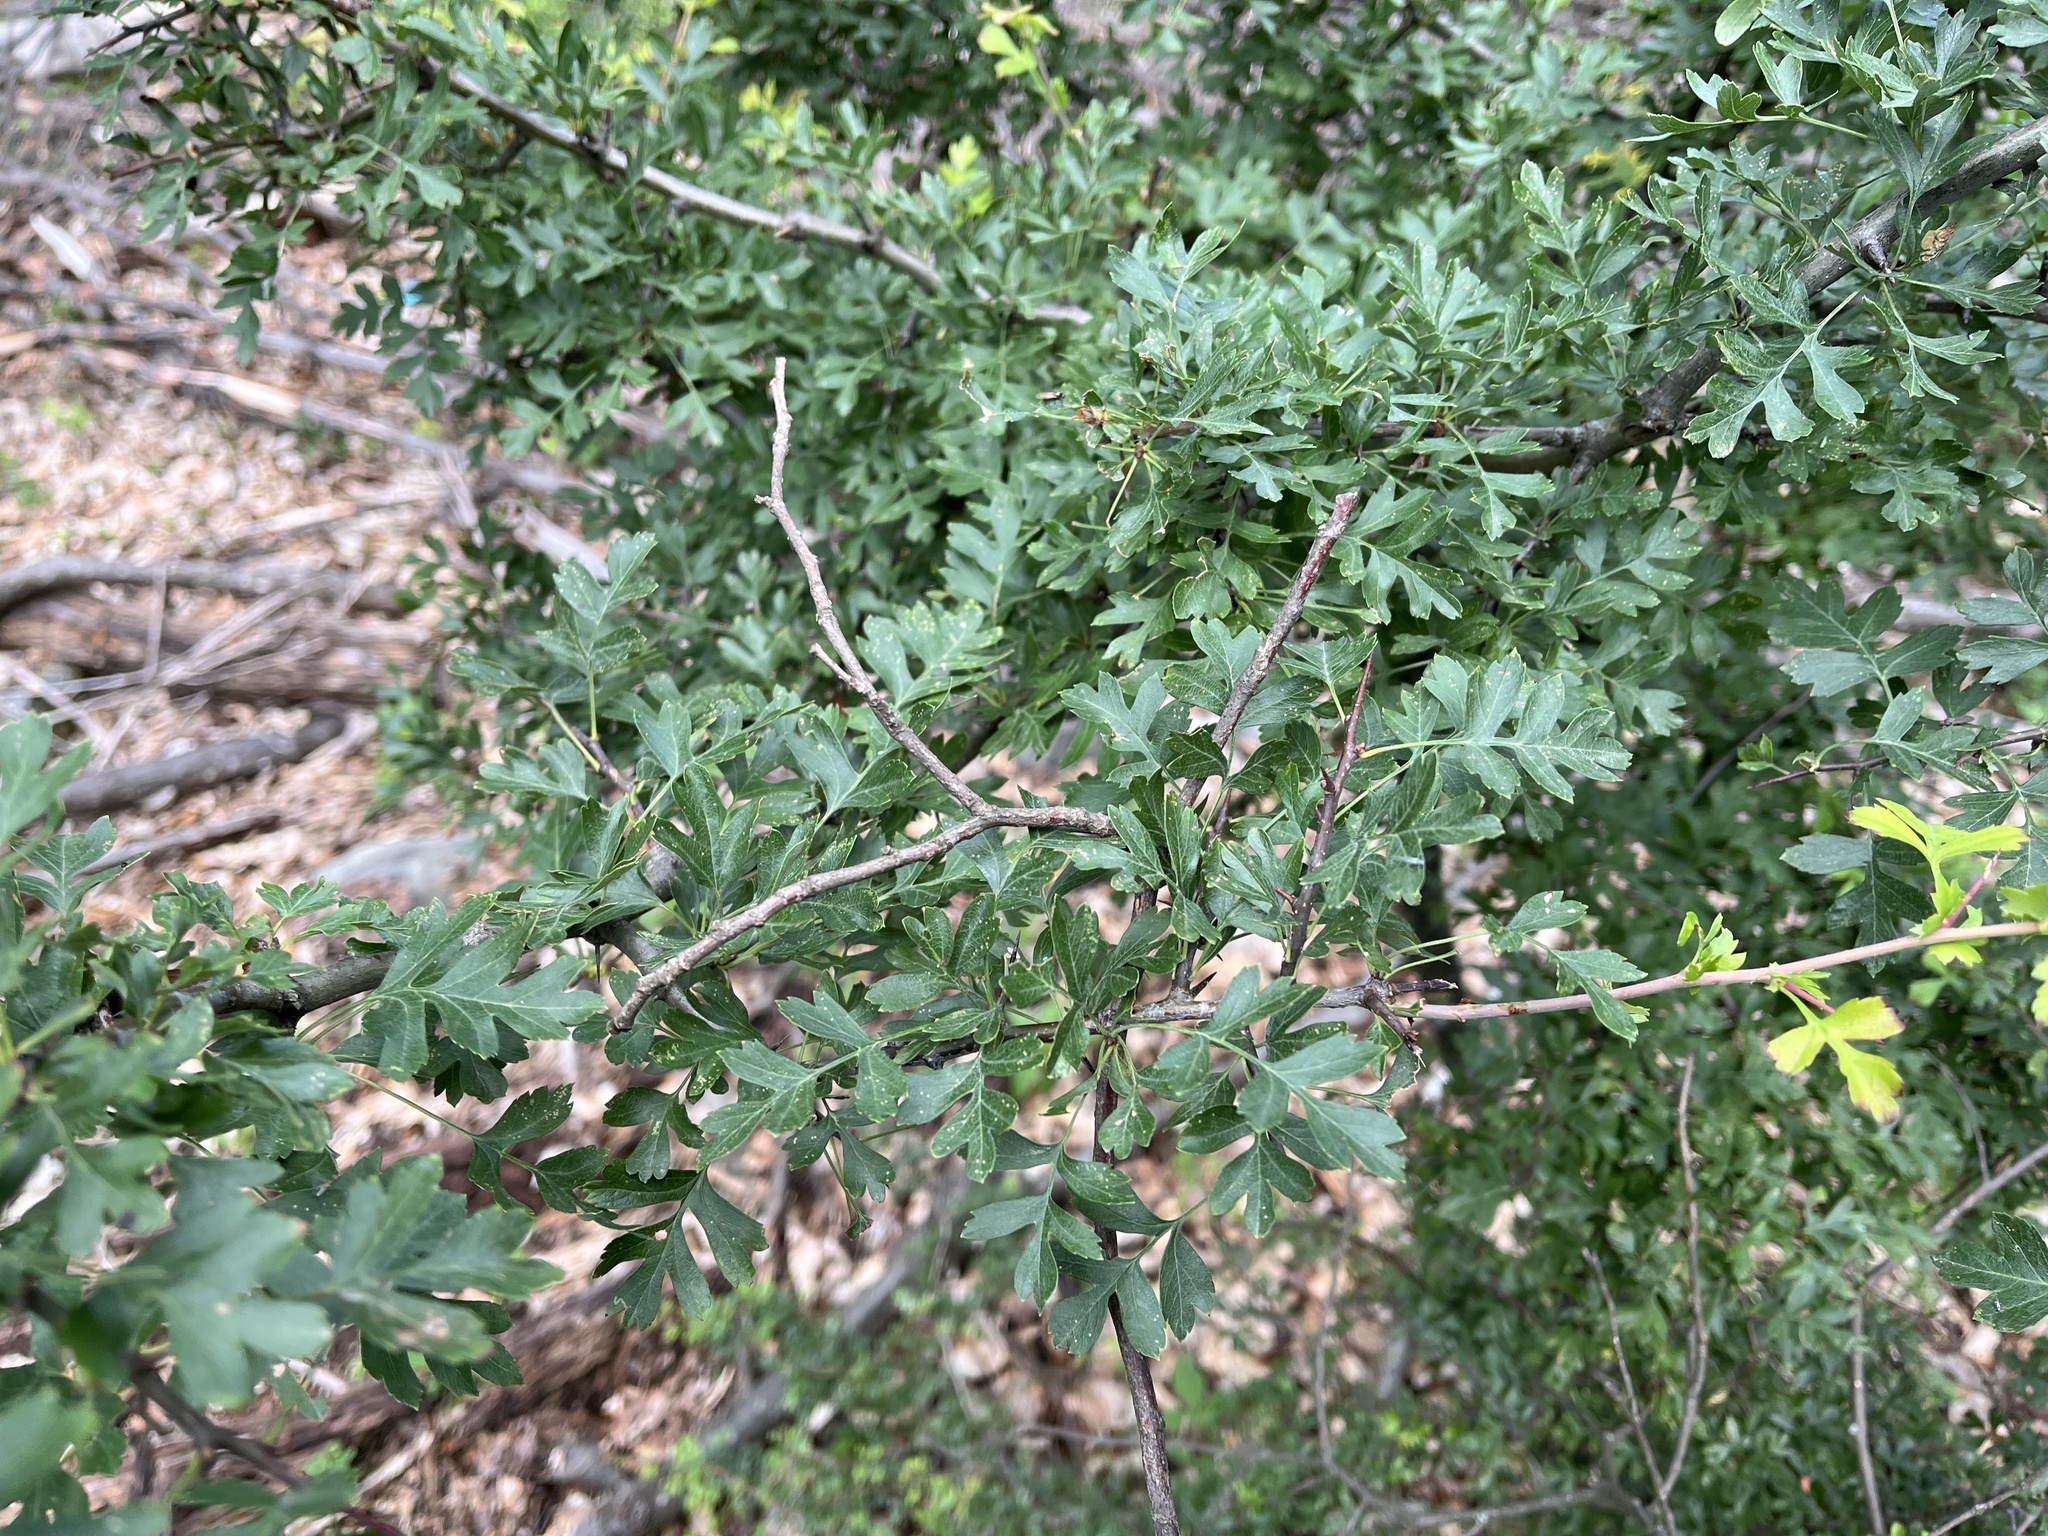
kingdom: Plantae
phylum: Tracheophyta
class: Magnoliopsida
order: Rosales
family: Rosaceae
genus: Crataegus
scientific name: Crataegus monogyna
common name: Hawthorn
